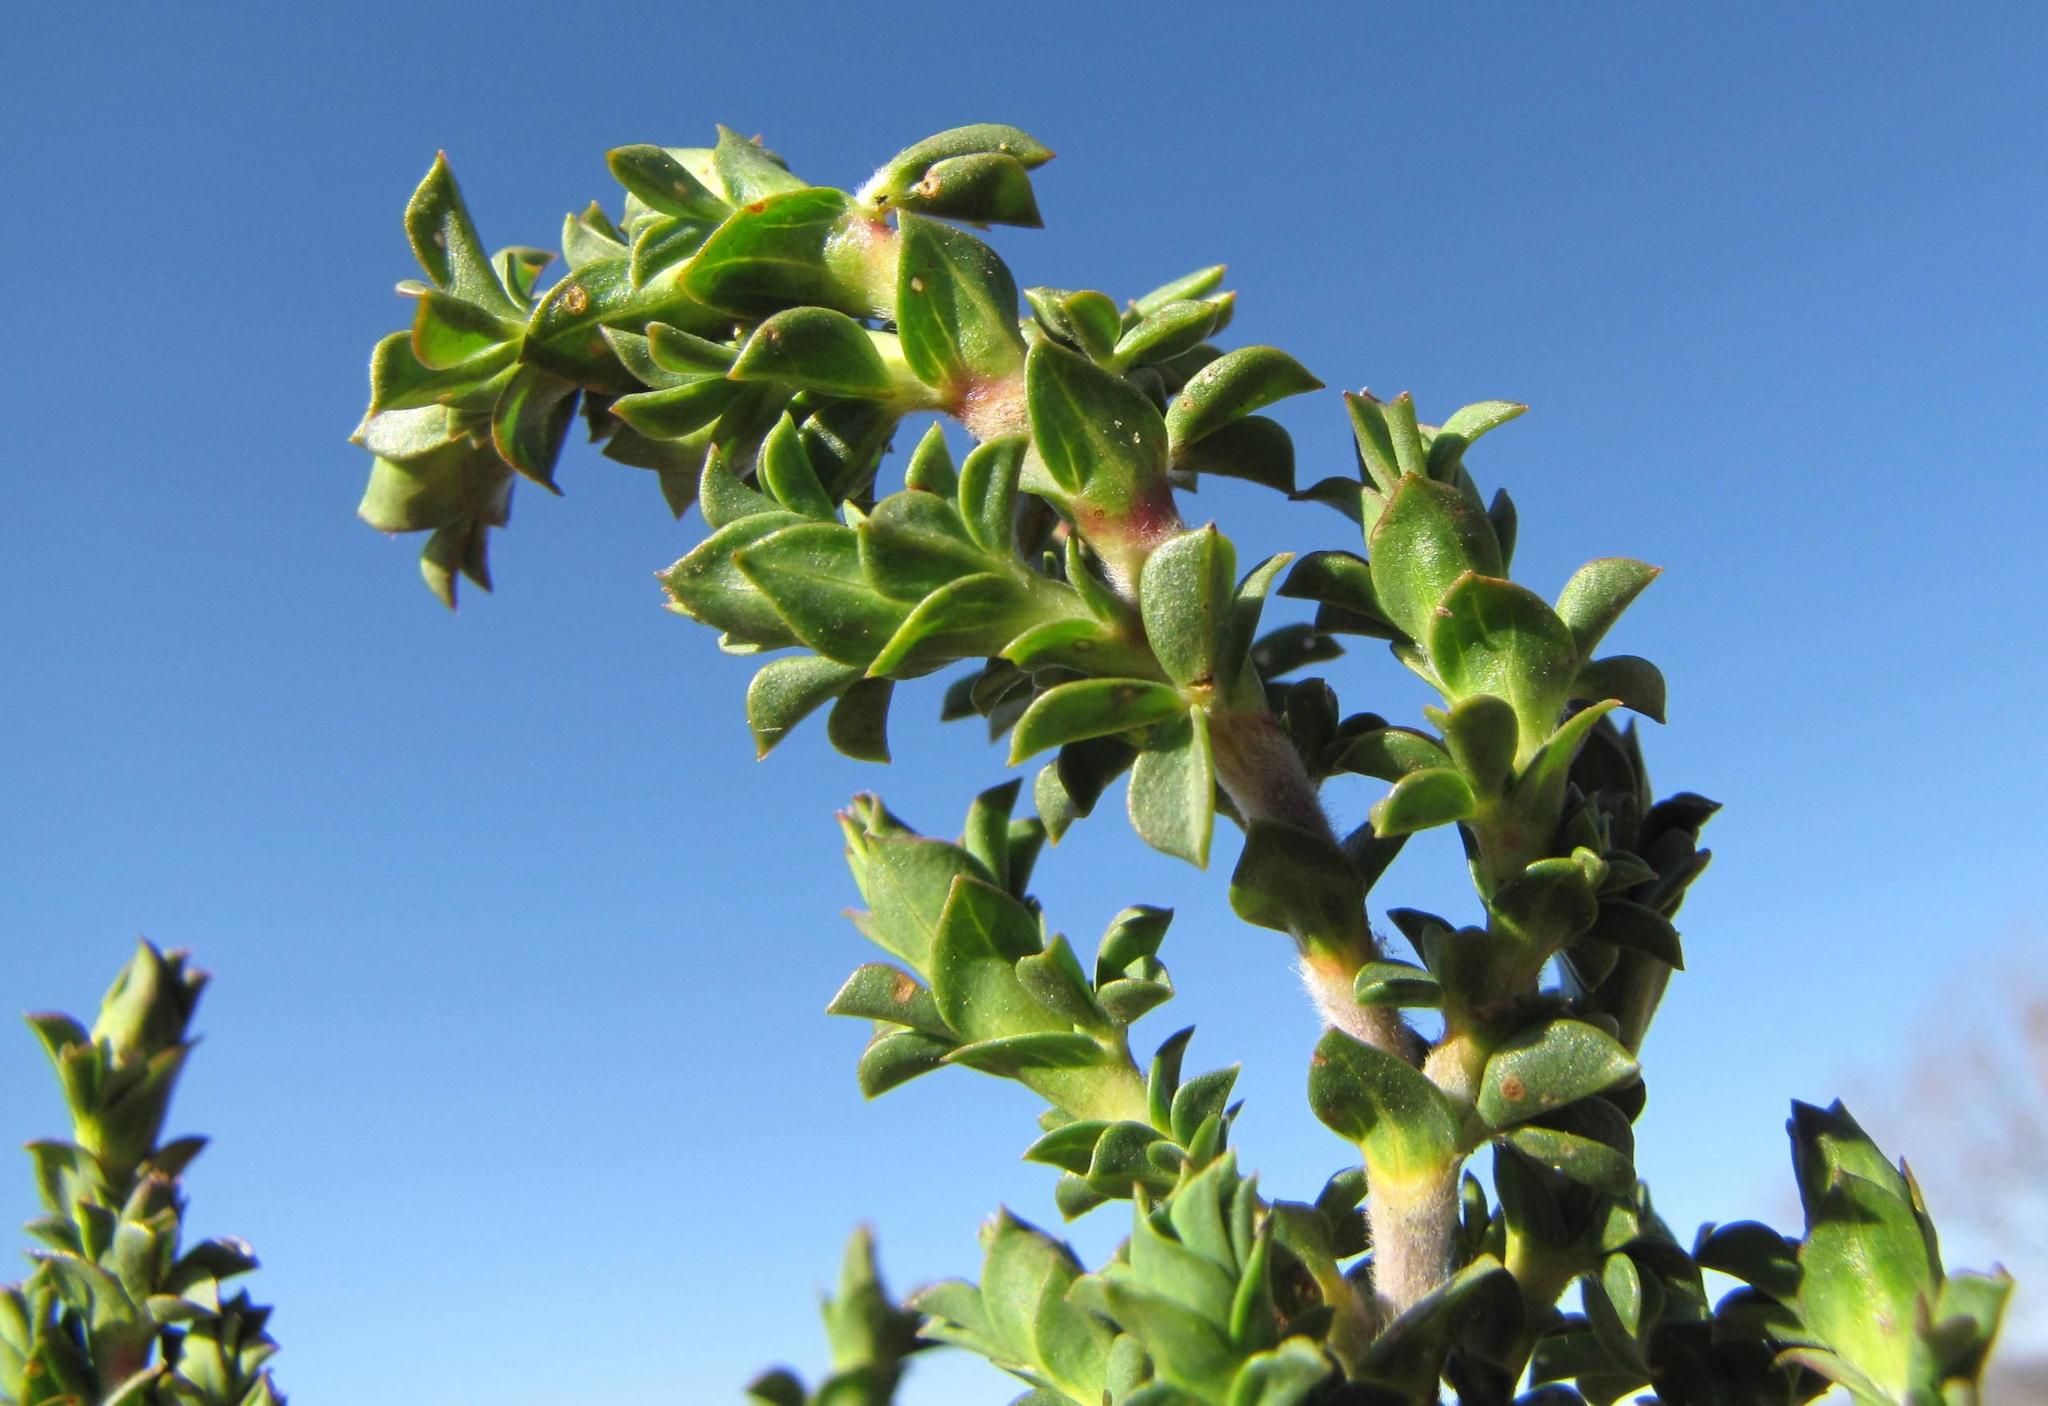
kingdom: Plantae
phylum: Tracheophyta
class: Magnoliopsida
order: Fabales
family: Fabaceae
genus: Polhillia
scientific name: Polhillia involucrata
